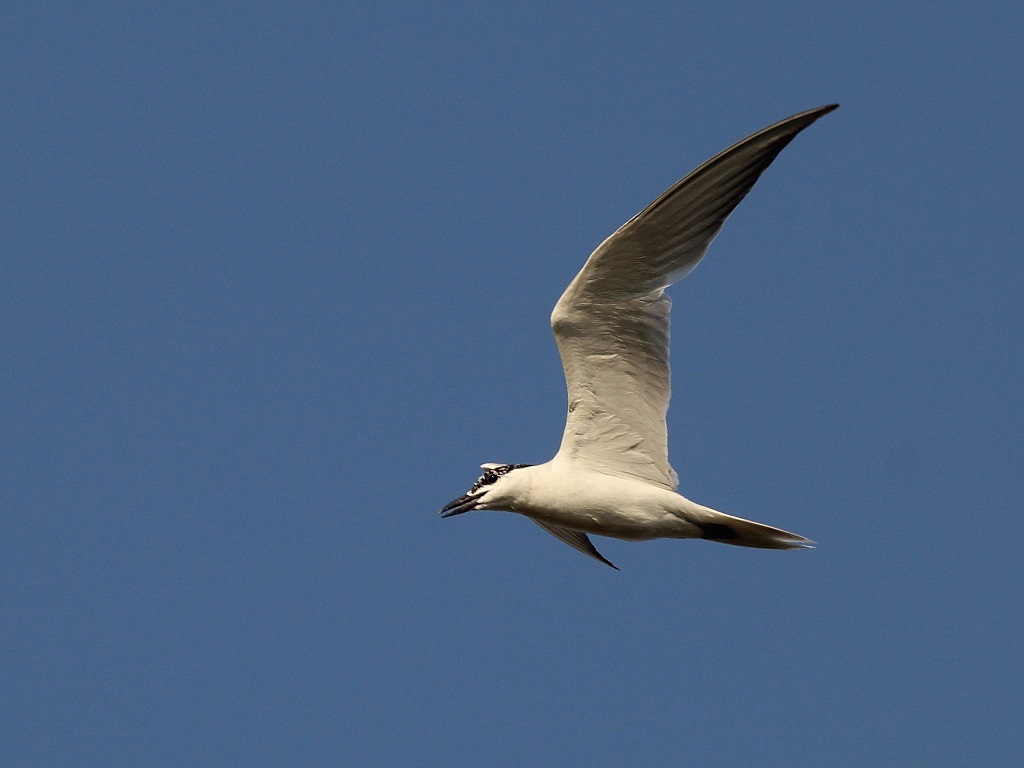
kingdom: Animalia
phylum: Chordata
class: Aves
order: Charadriiformes
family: Laridae
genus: Gelochelidon
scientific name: Gelochelidon nilotica
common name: Gull-billed tern
